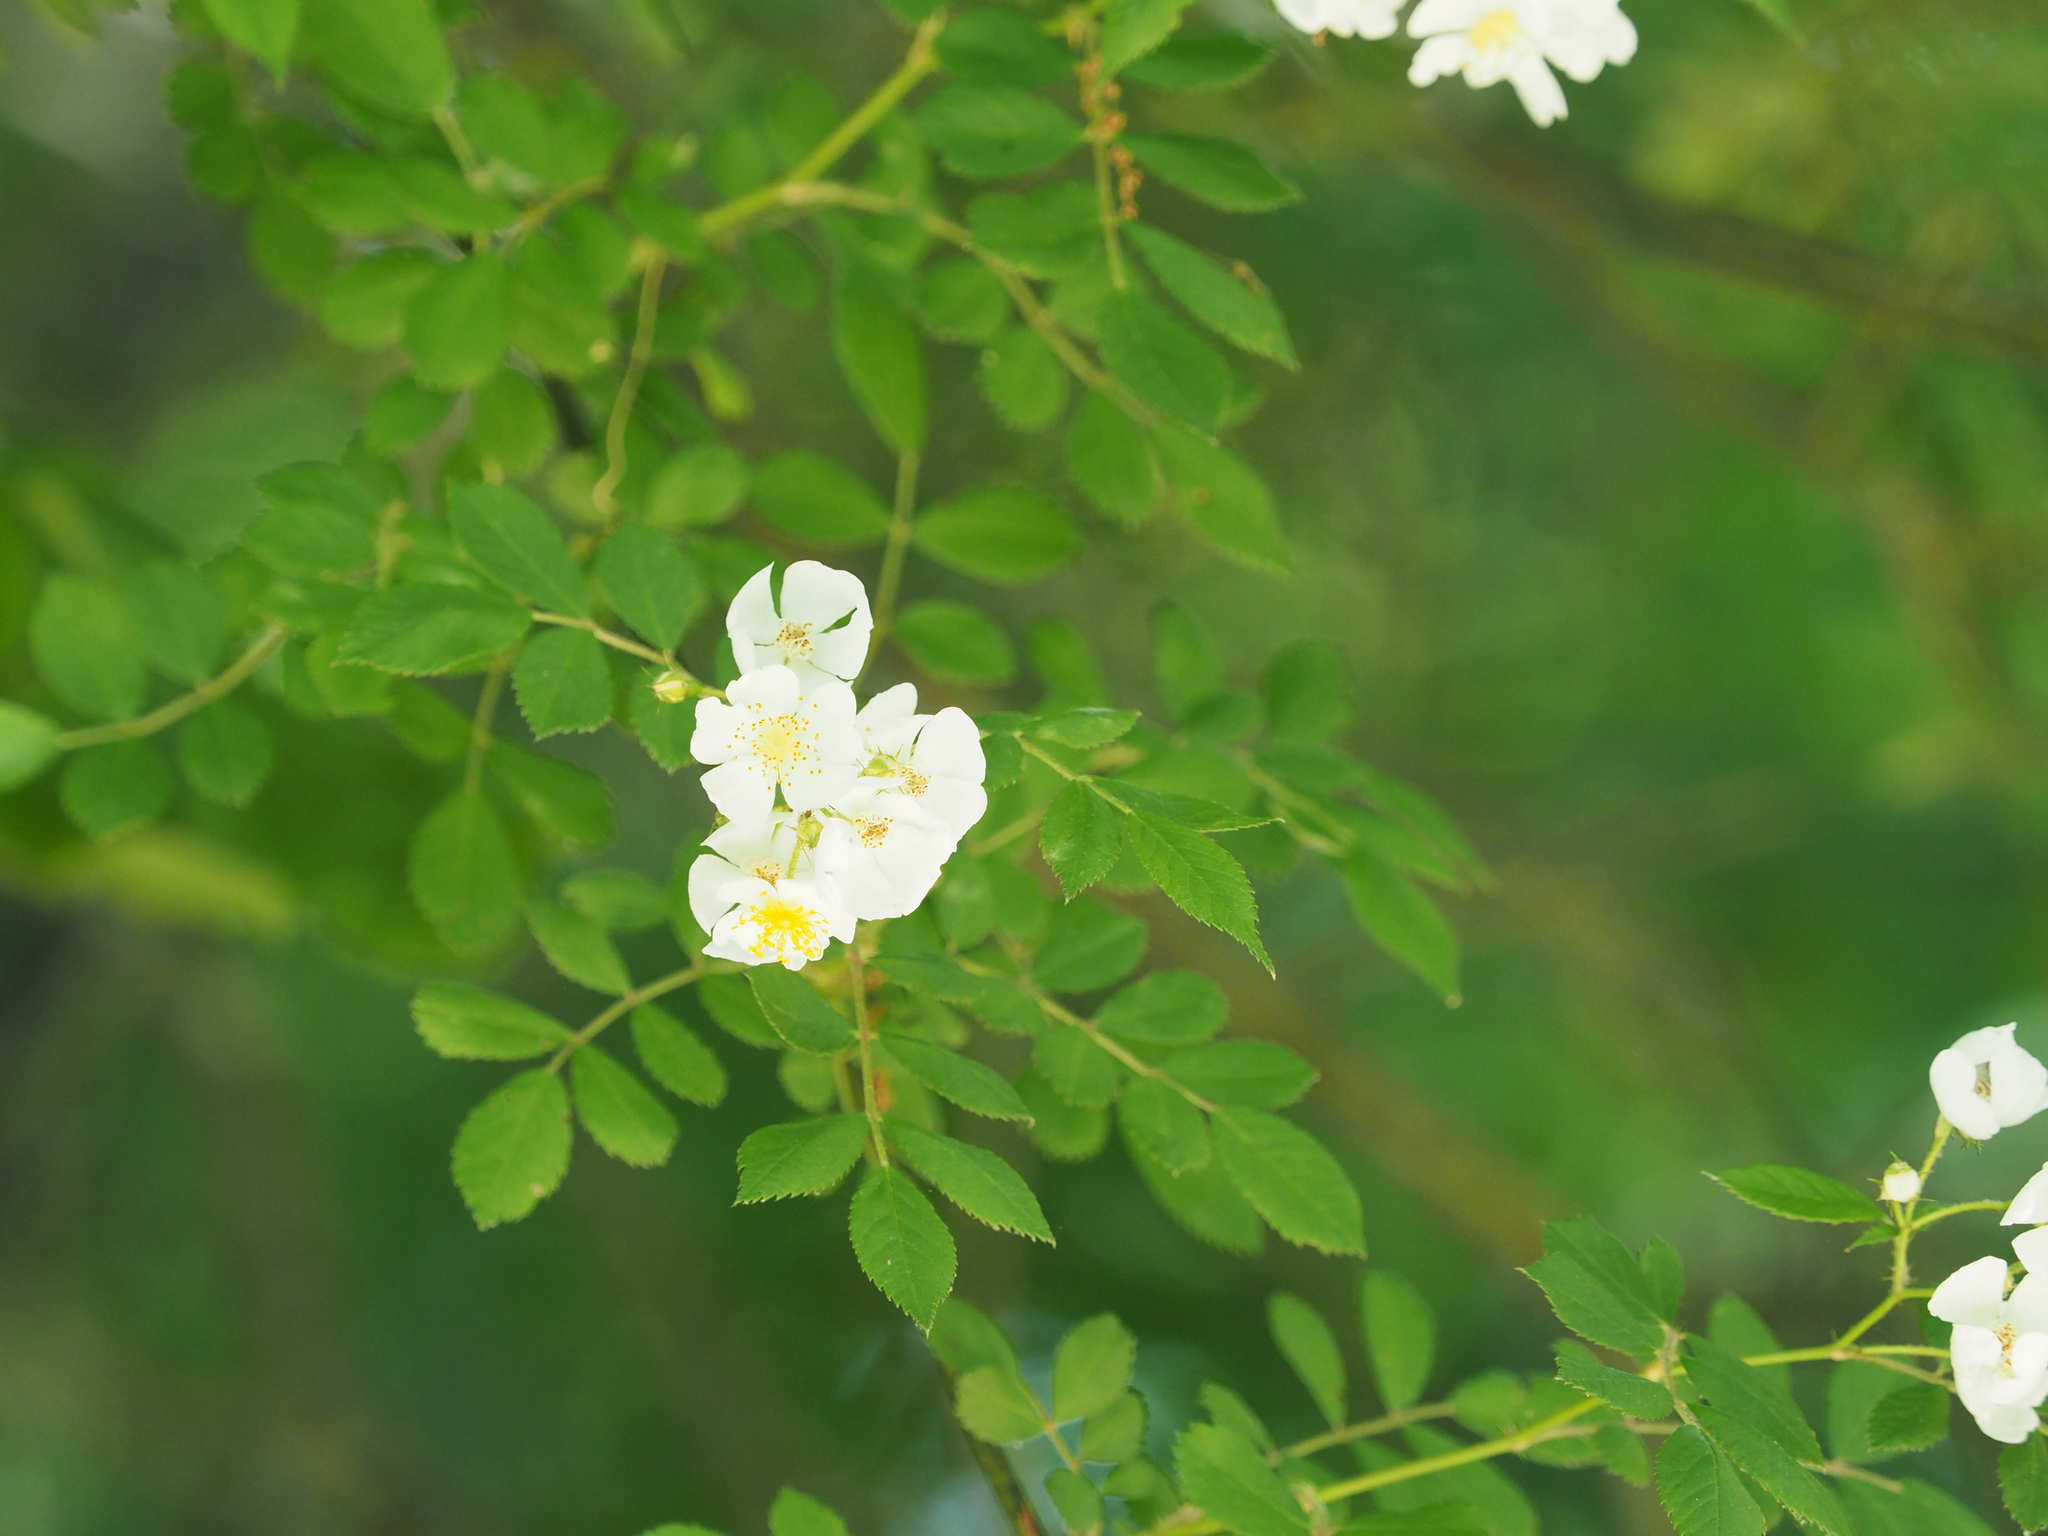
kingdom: Plantae
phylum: Tracheophyta
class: Magnoliopsida
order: Rosales
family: Rosaceae
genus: Rosa
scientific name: Rosa multiflora
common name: Multiflora rose
